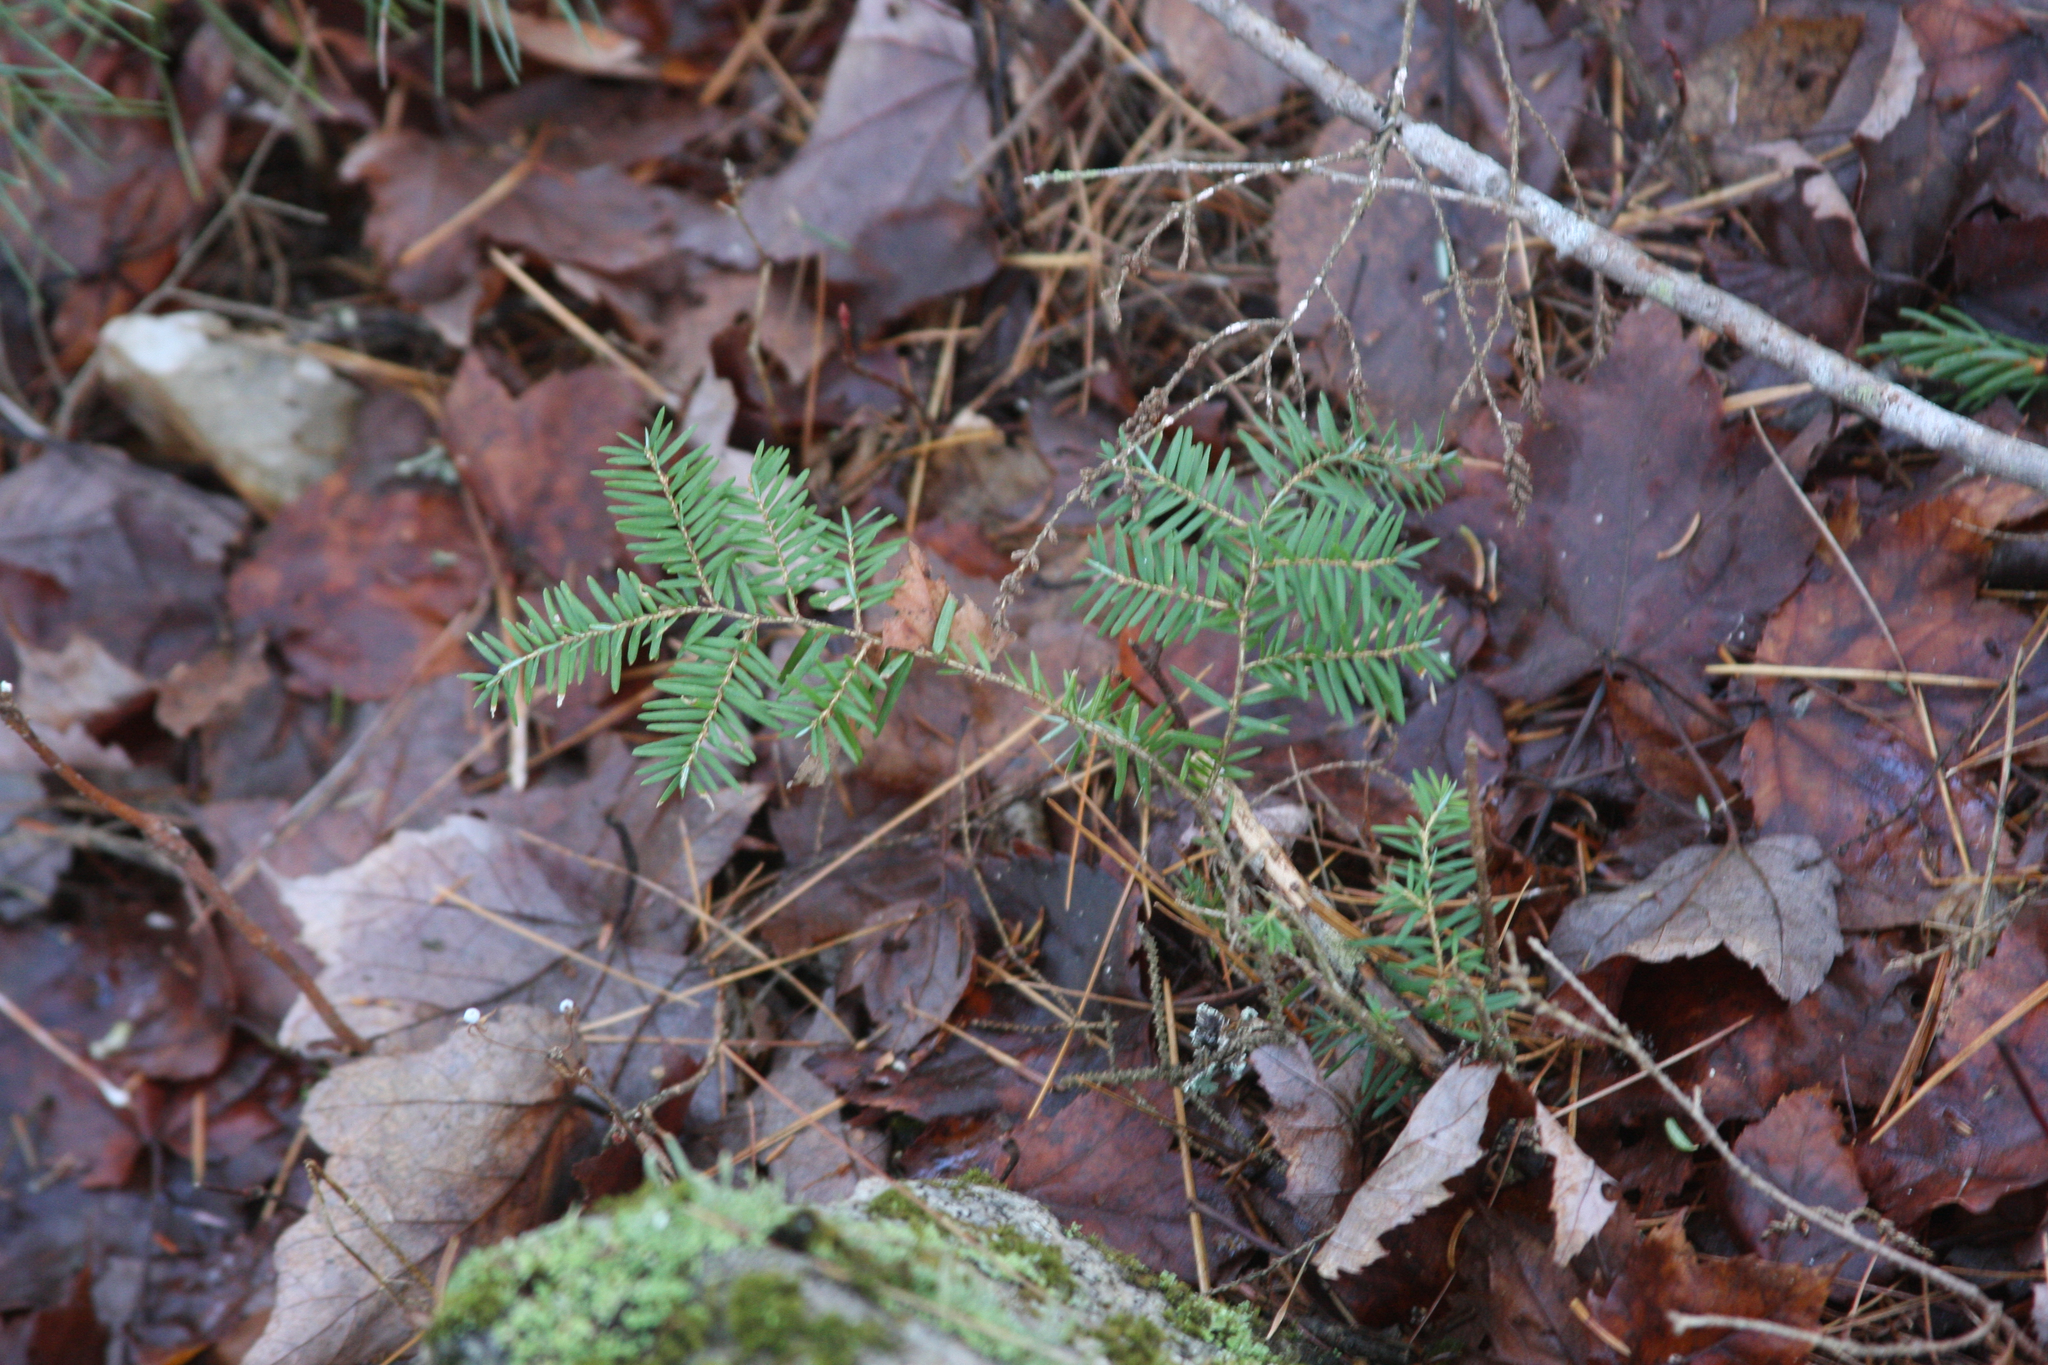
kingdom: Plantae
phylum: Tracheophyta
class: Pinopsida
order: Pinales
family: Pinaceae
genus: Tsuga
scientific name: Tsuga canadensis
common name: Eastern hemlock
